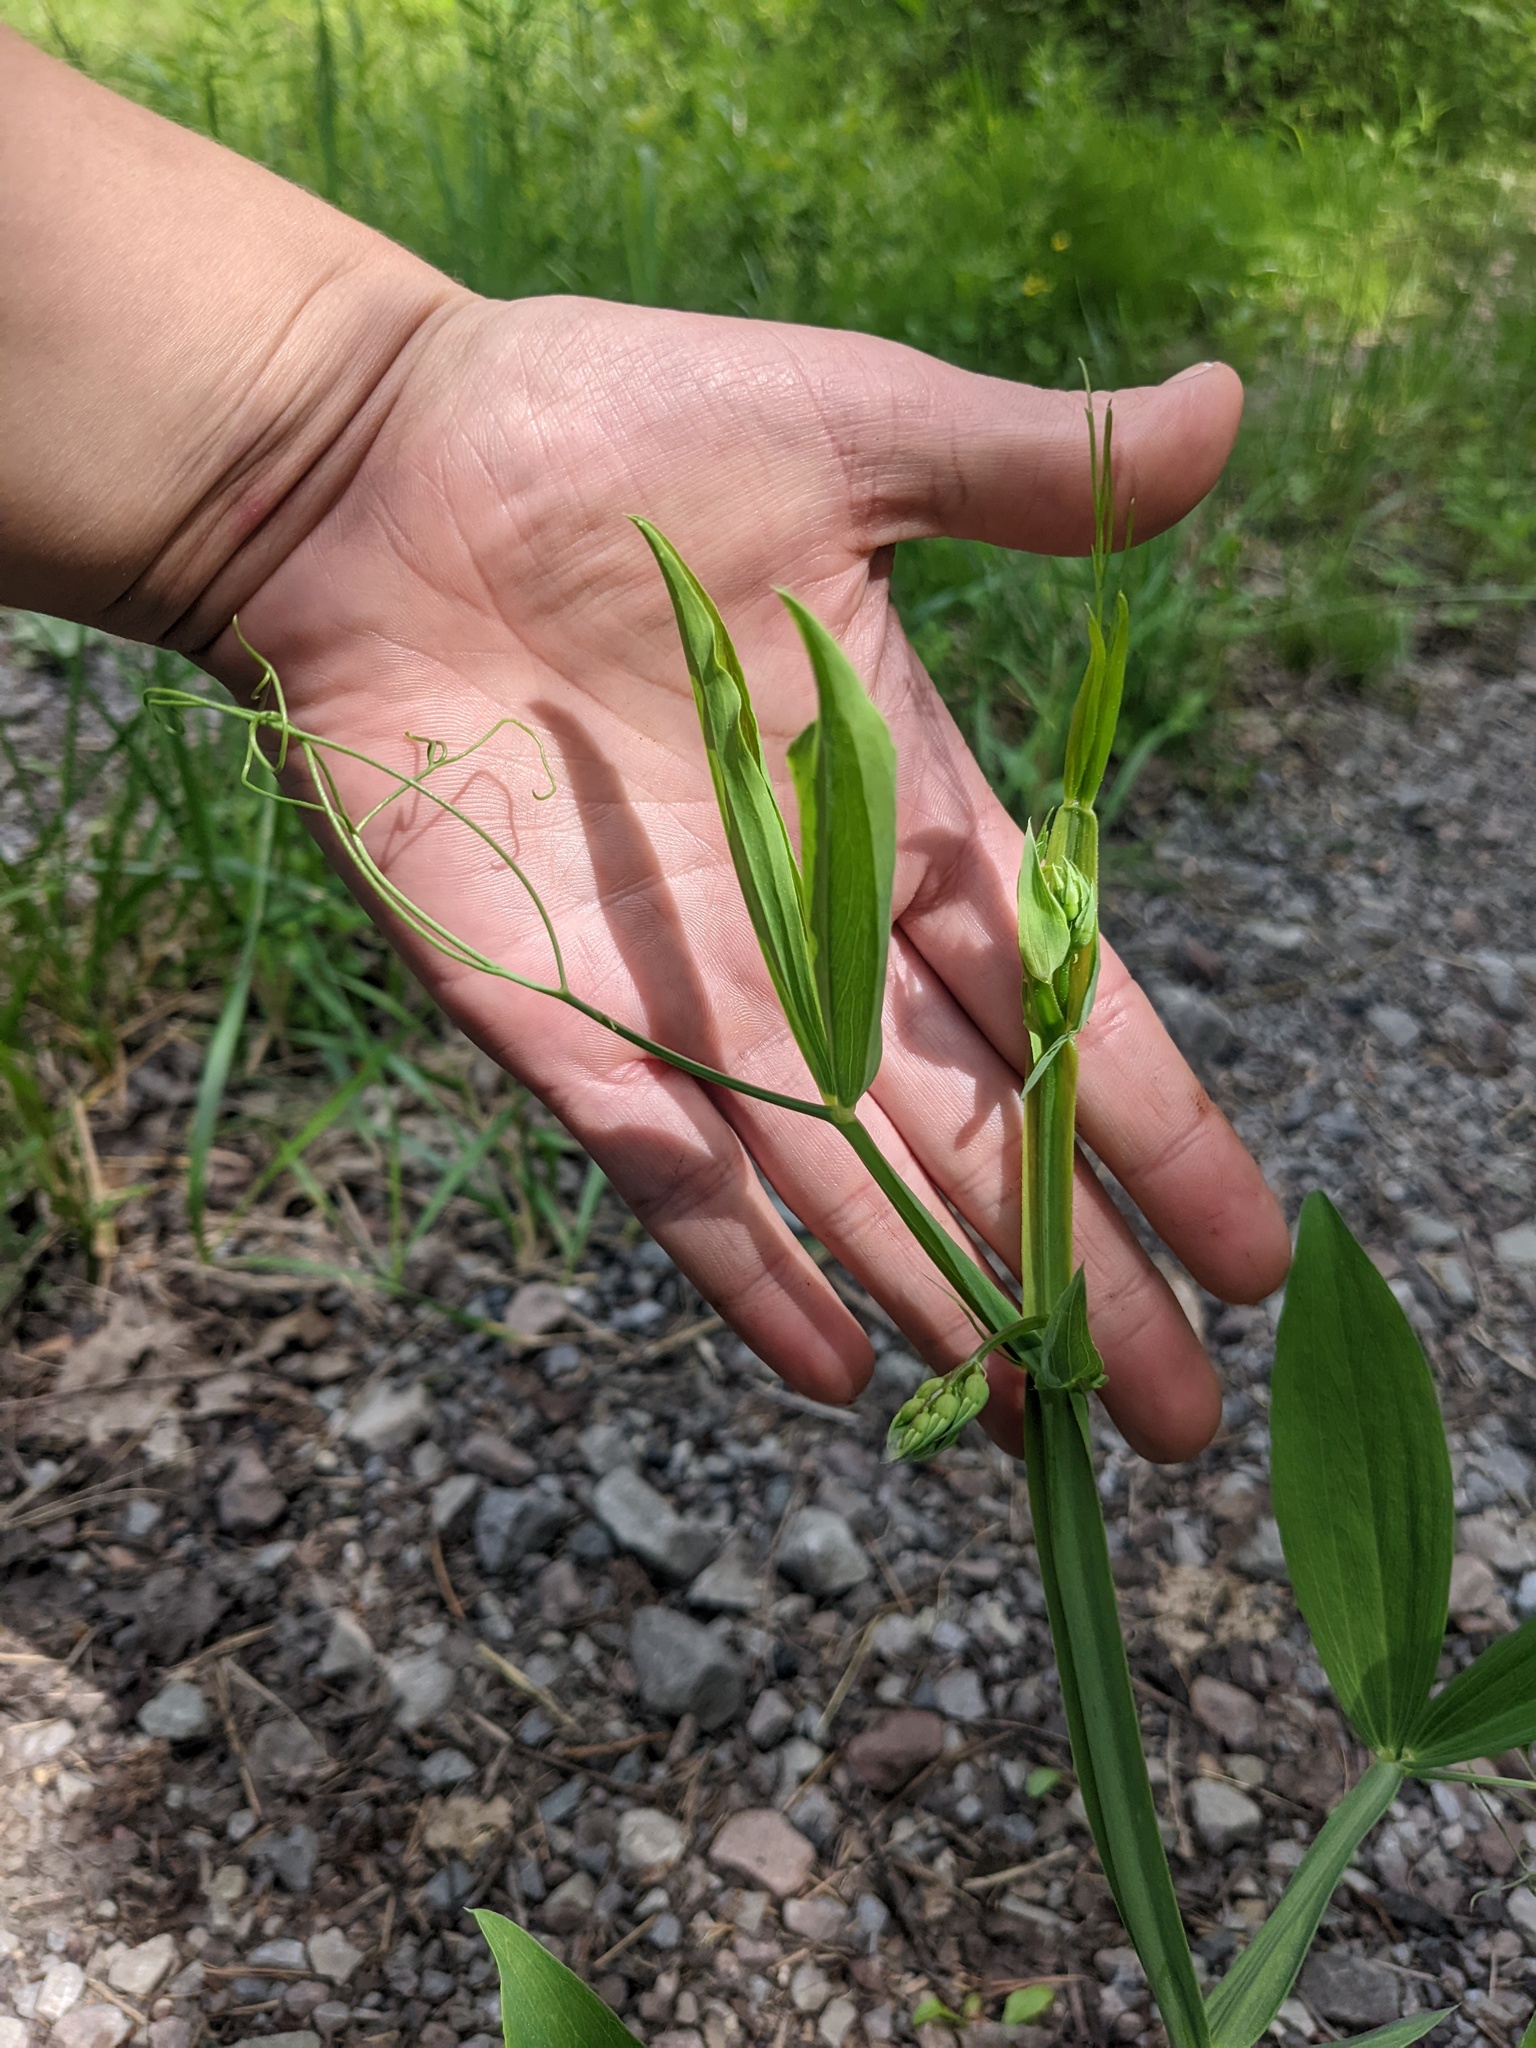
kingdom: Plantae
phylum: Tracheophyta
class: Magnoliopsida
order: Fabales
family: Fabaceae
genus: Lathyrus
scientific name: Lathyrus latifolius
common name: Perennial pea
